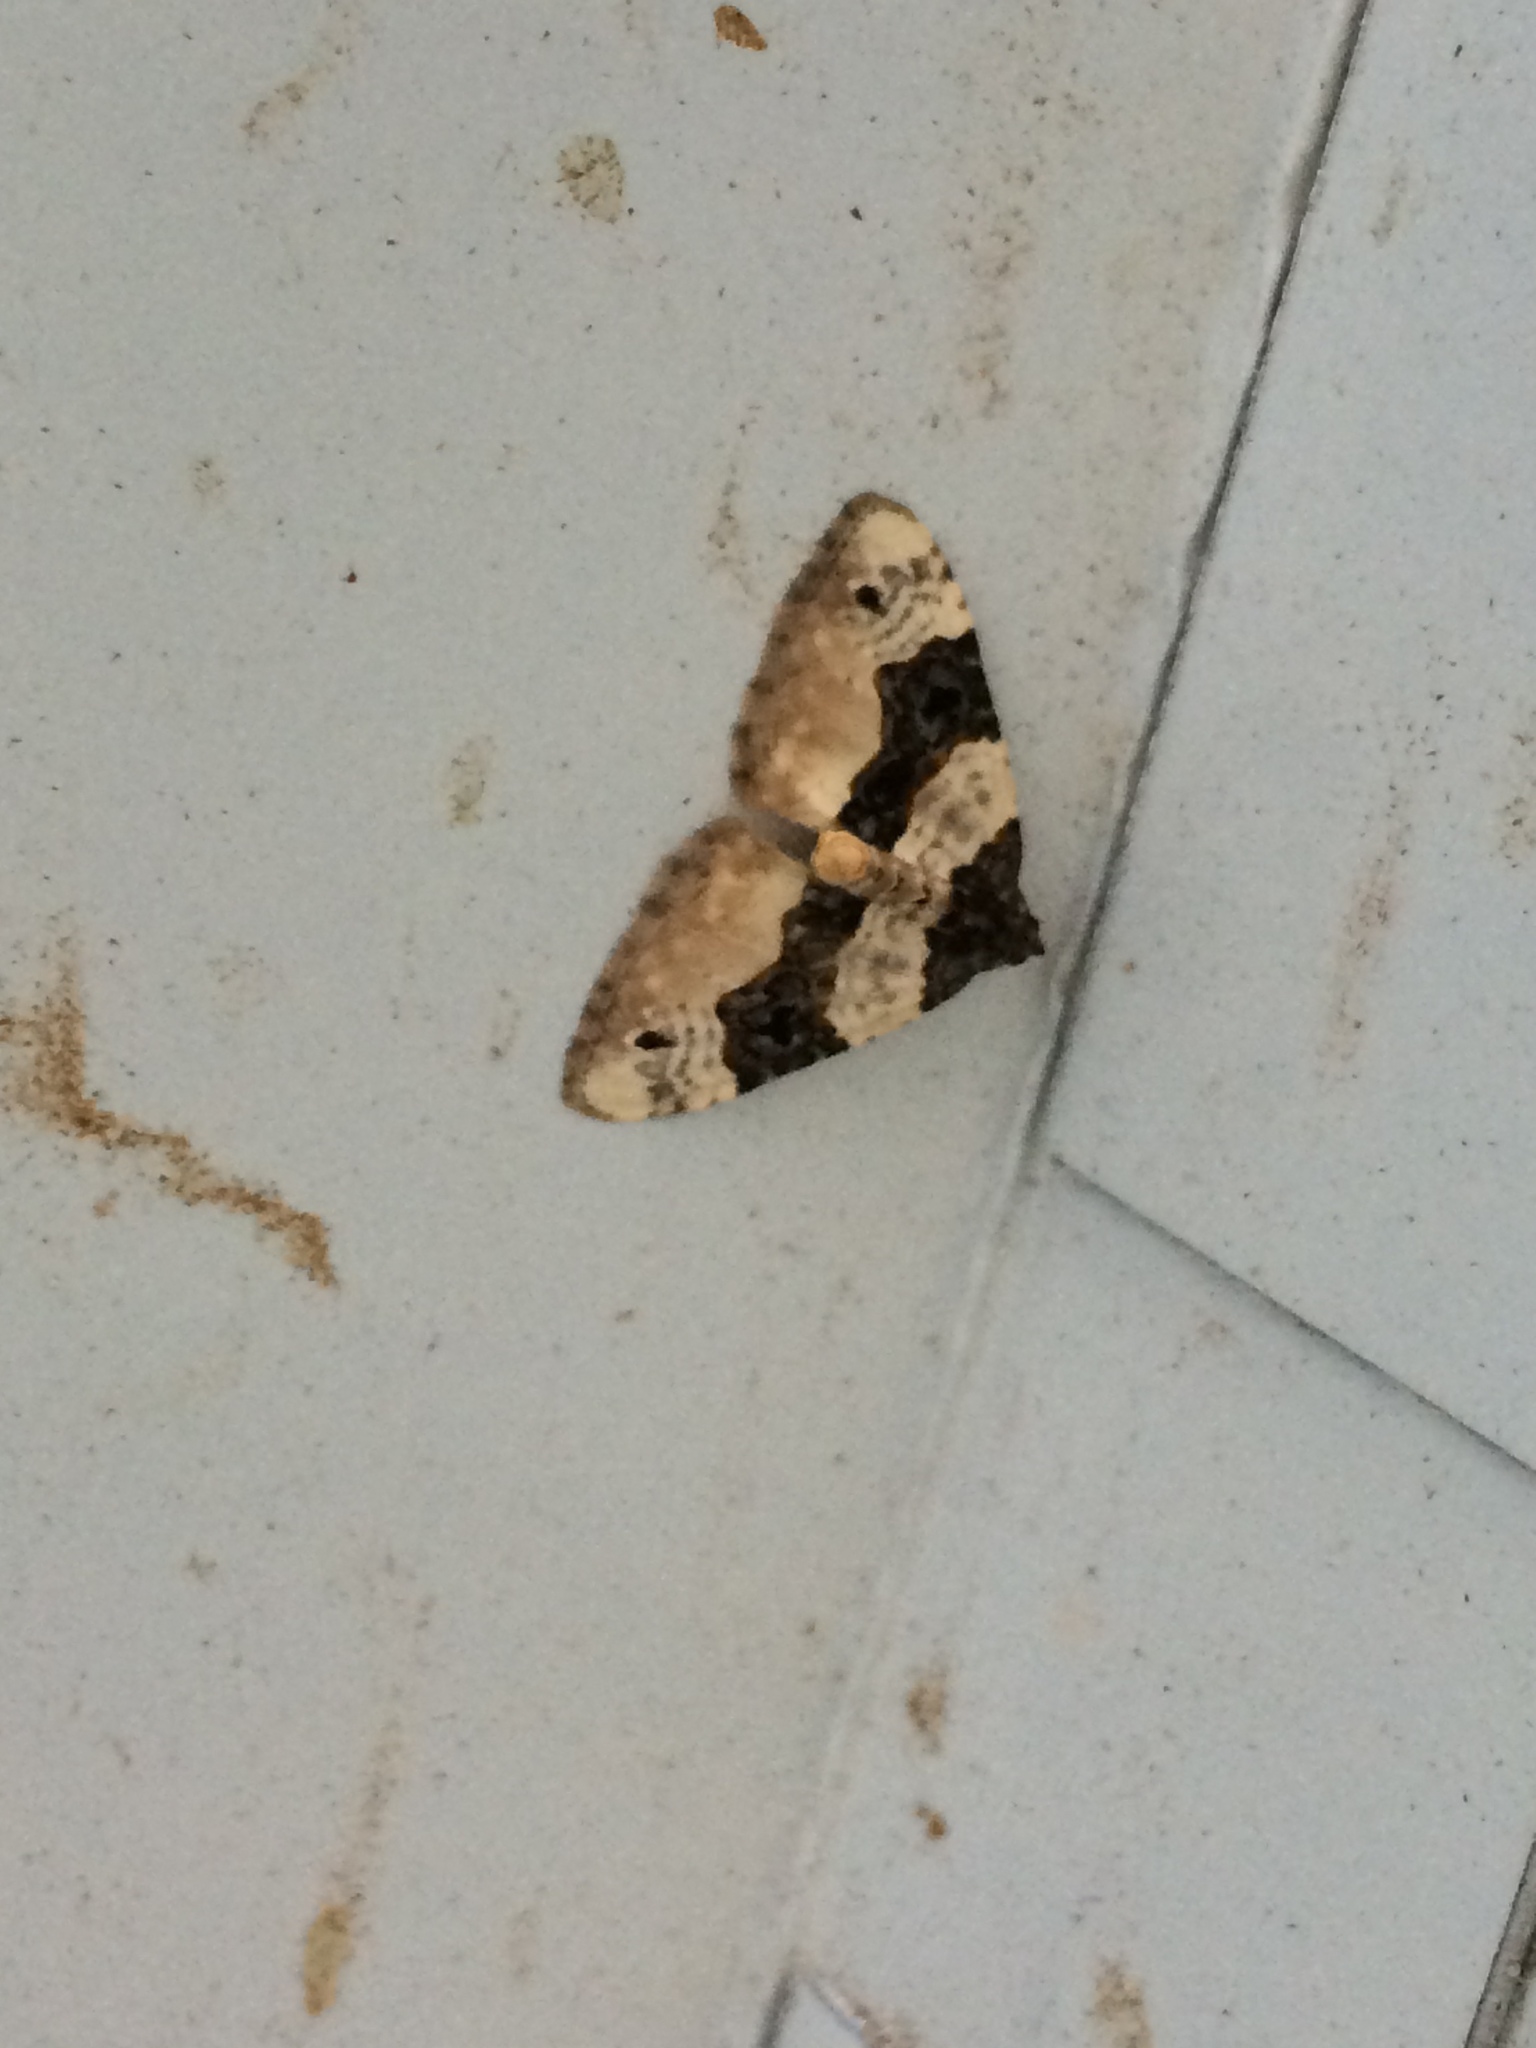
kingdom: Animalia
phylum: Arthropoda
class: Insecta
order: Lepidoptera
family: Geometridae
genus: Cosmorhoe
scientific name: Cosmorhoe ocellata
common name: Purple bar
